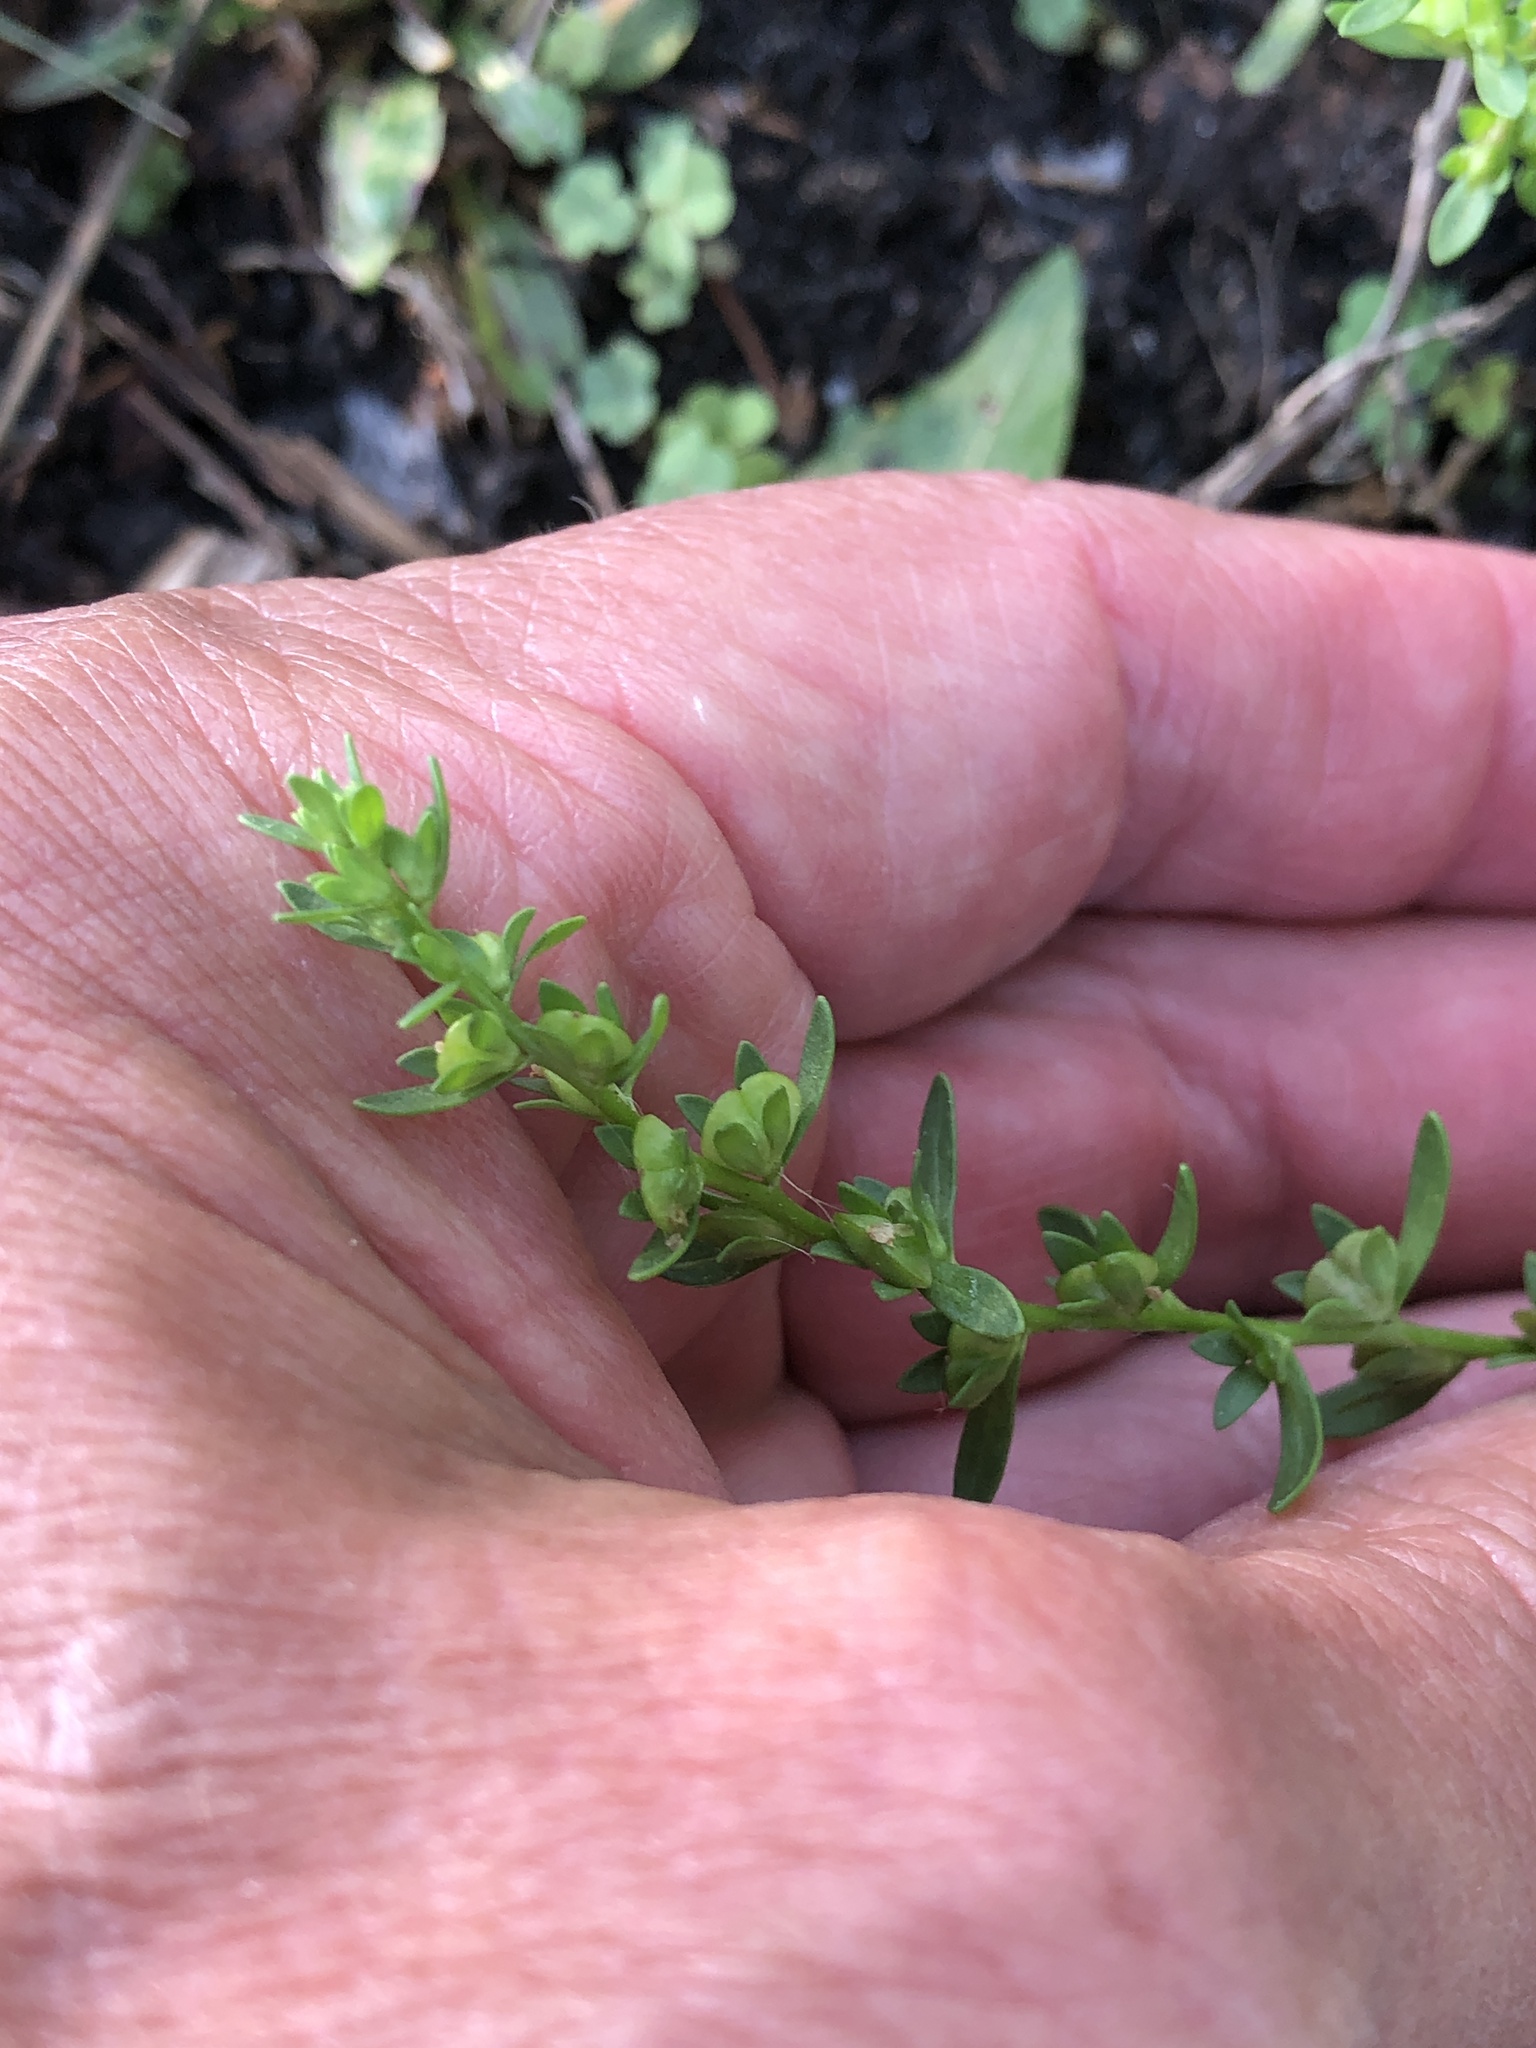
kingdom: Plantae
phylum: Tracheophyta
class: Magnoliopsida
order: Lamiales
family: Plantaginaceae
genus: Veronica
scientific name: Veronica peregrina
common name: Neckweed
